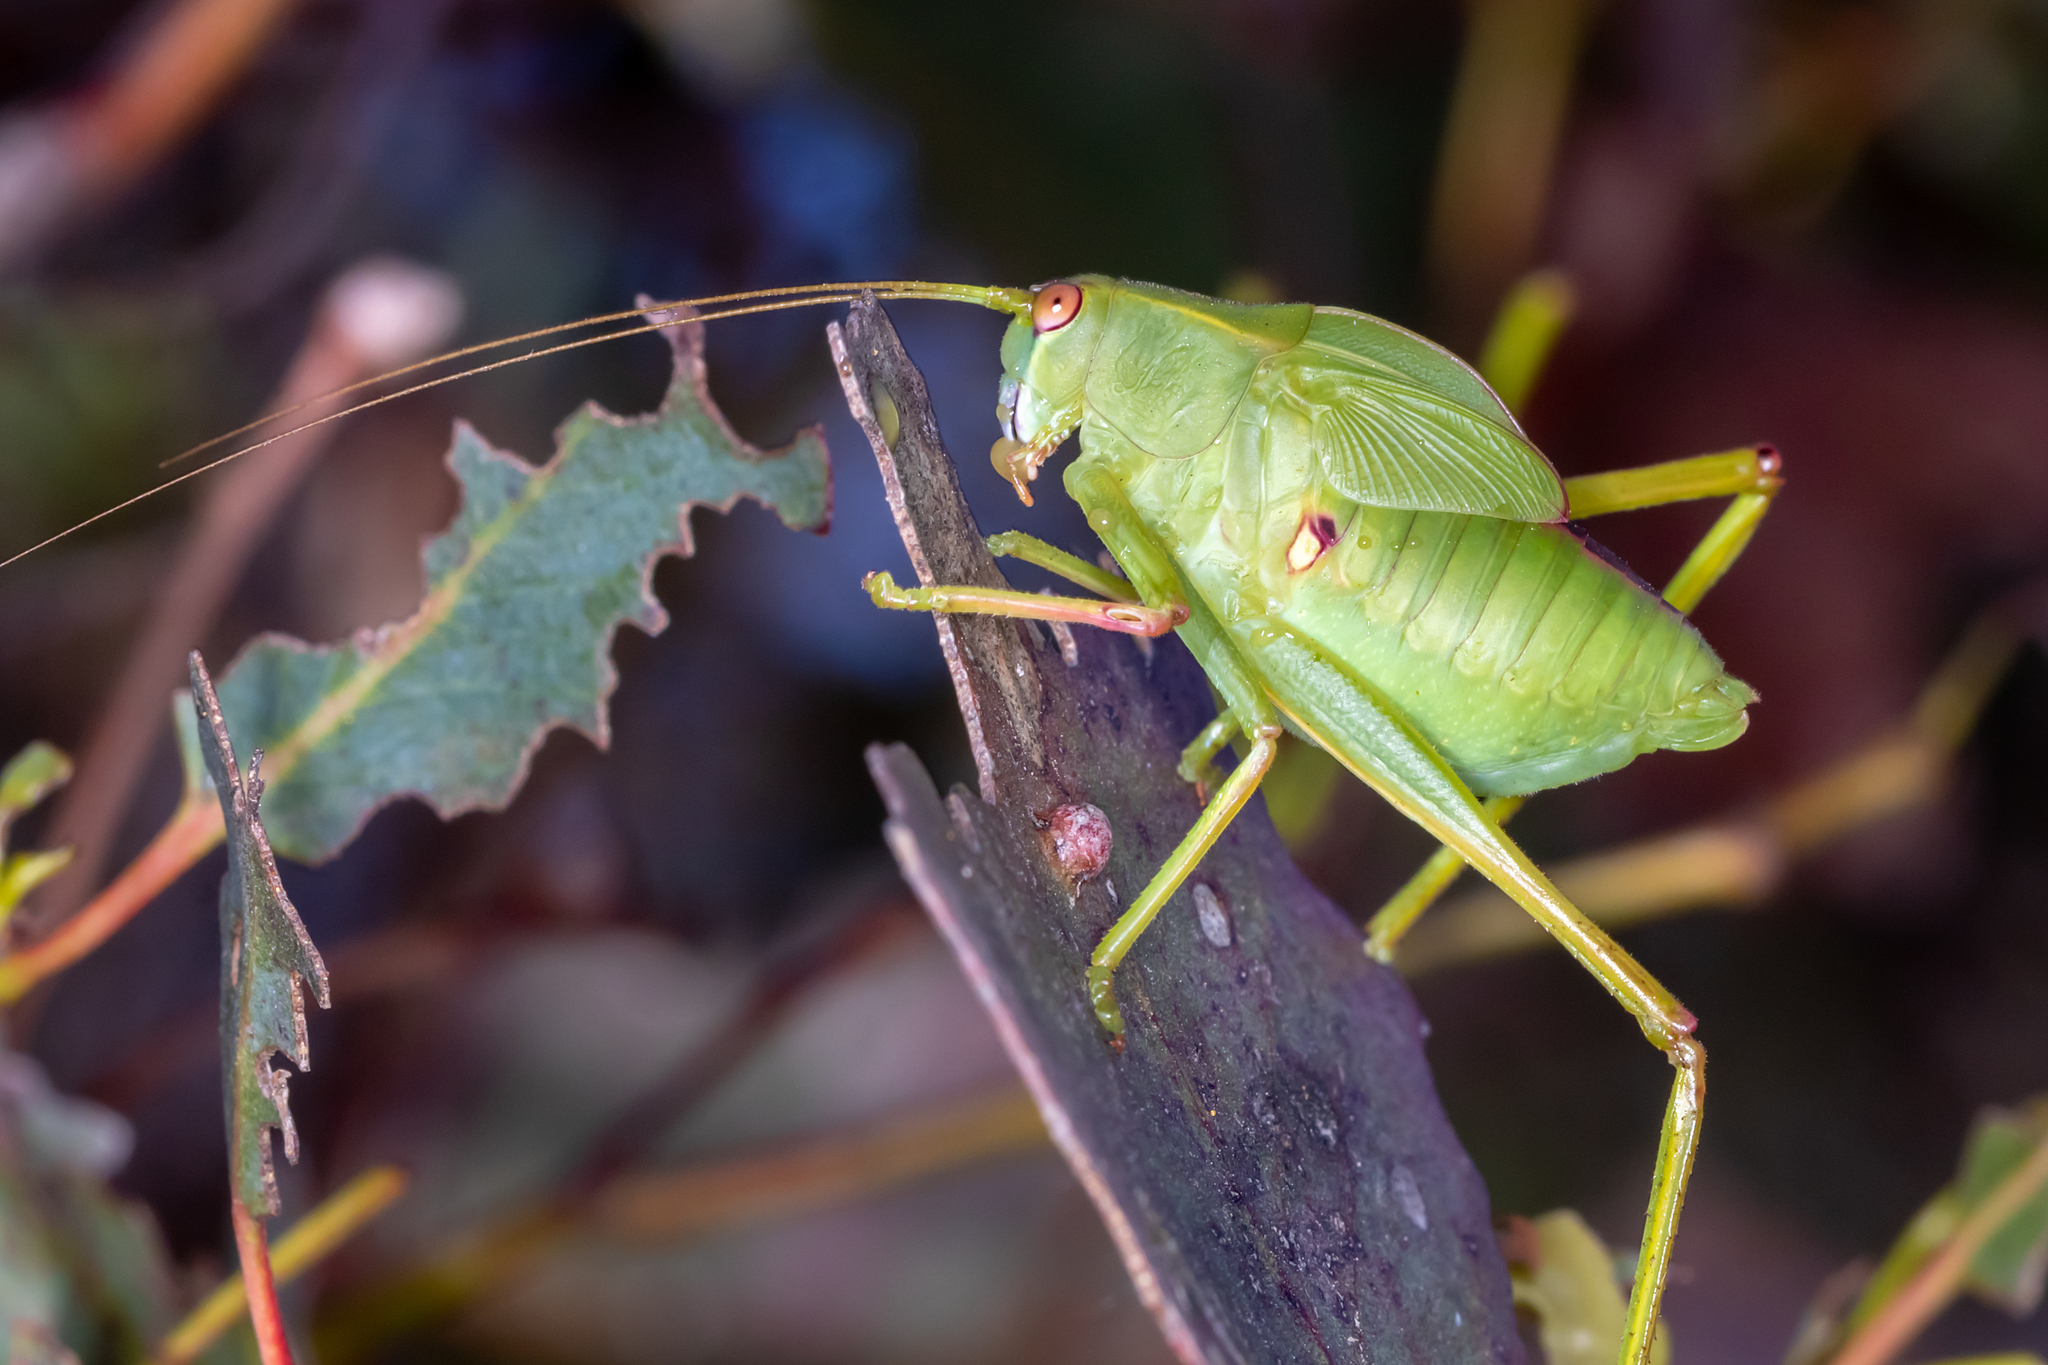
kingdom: Animalia
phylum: Arthropoda
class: Insecta
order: Orthoptera
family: Tettigoniidae
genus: Torbia
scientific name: Torbia viridissima
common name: Non-predaceous gum leaf katydid
